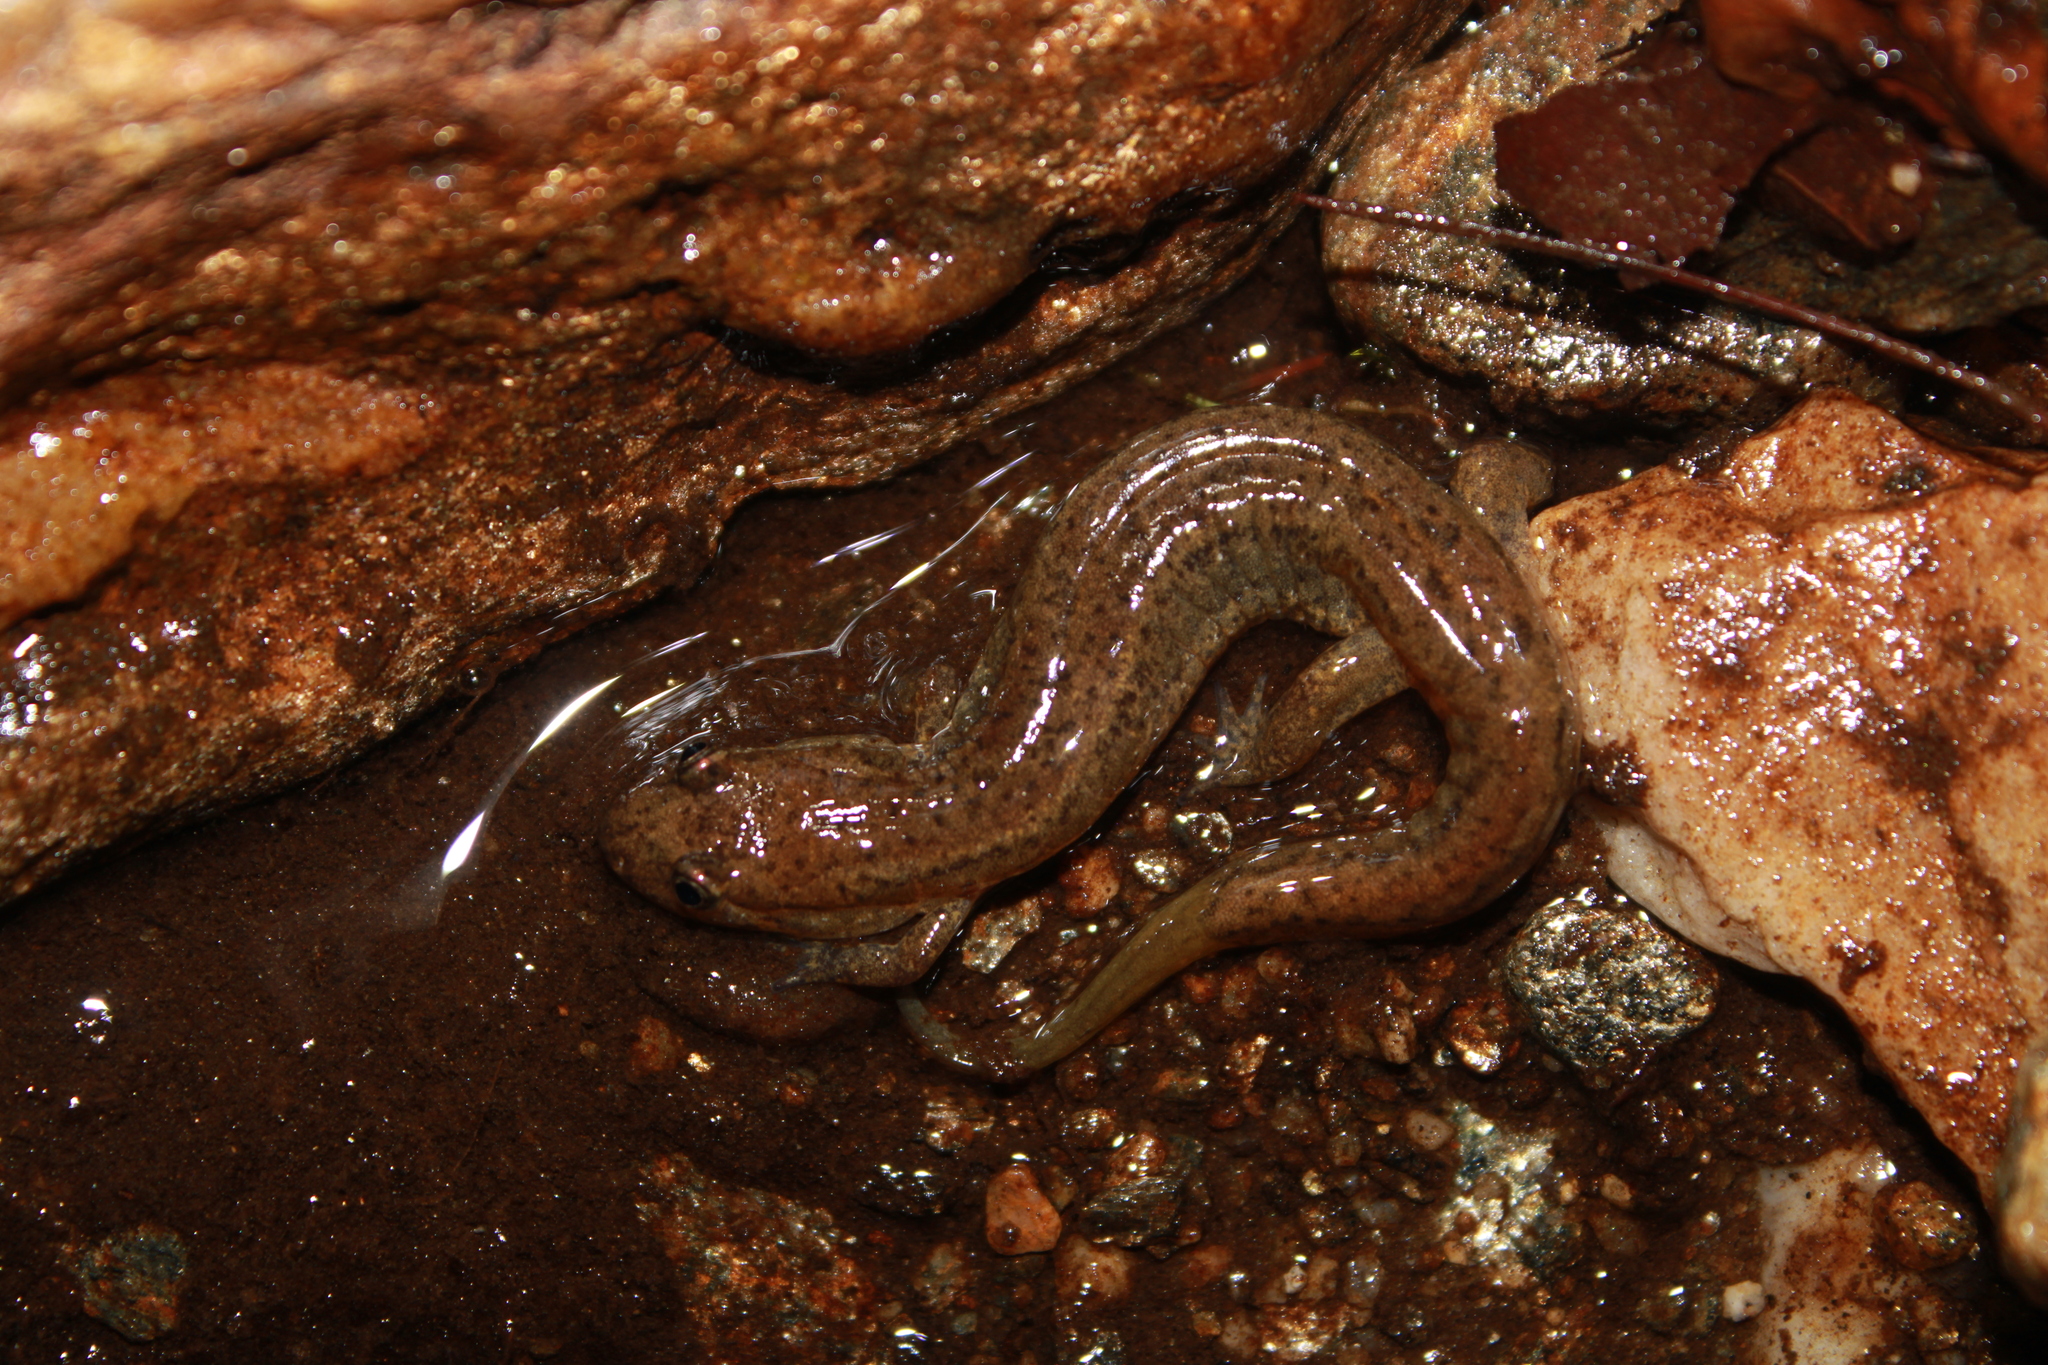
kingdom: Animalia
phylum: Chordata
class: Amphibia
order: Caudata
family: Plethodontidae
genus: Desmognathus
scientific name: Desmognathus fuscus
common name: Northern dusky salamander
